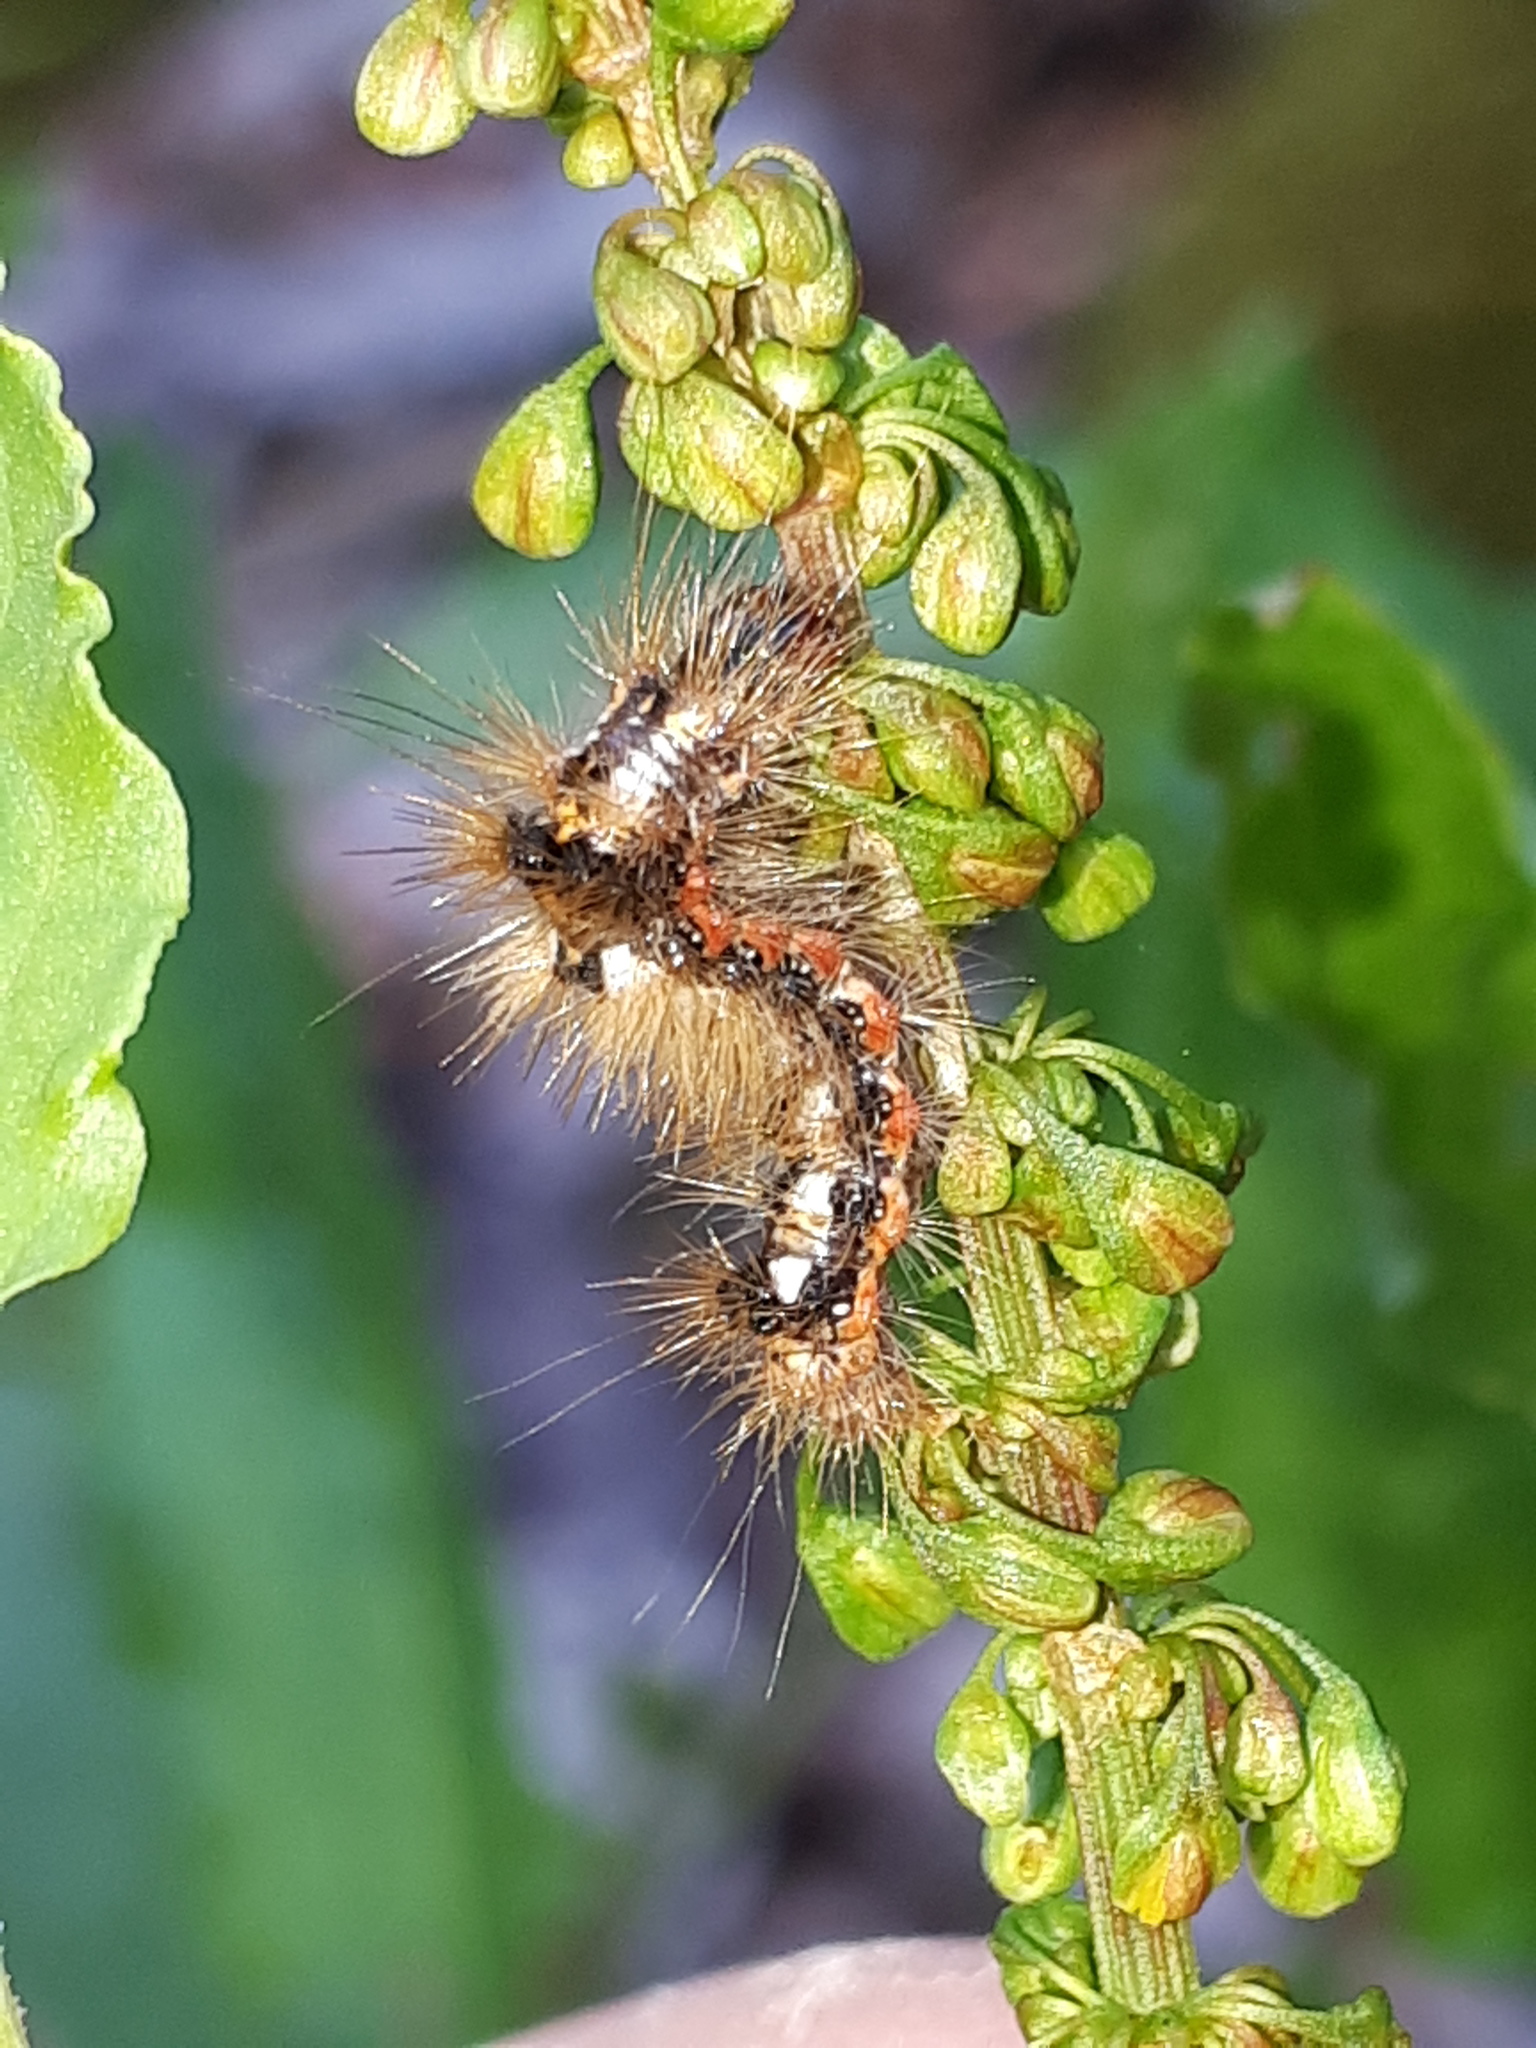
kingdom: Animalia
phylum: Arthropoda
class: Insecta
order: Lepidoptera
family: Noctuidae
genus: Acronicta
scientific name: Acronicta rumicis
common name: Knot grass
